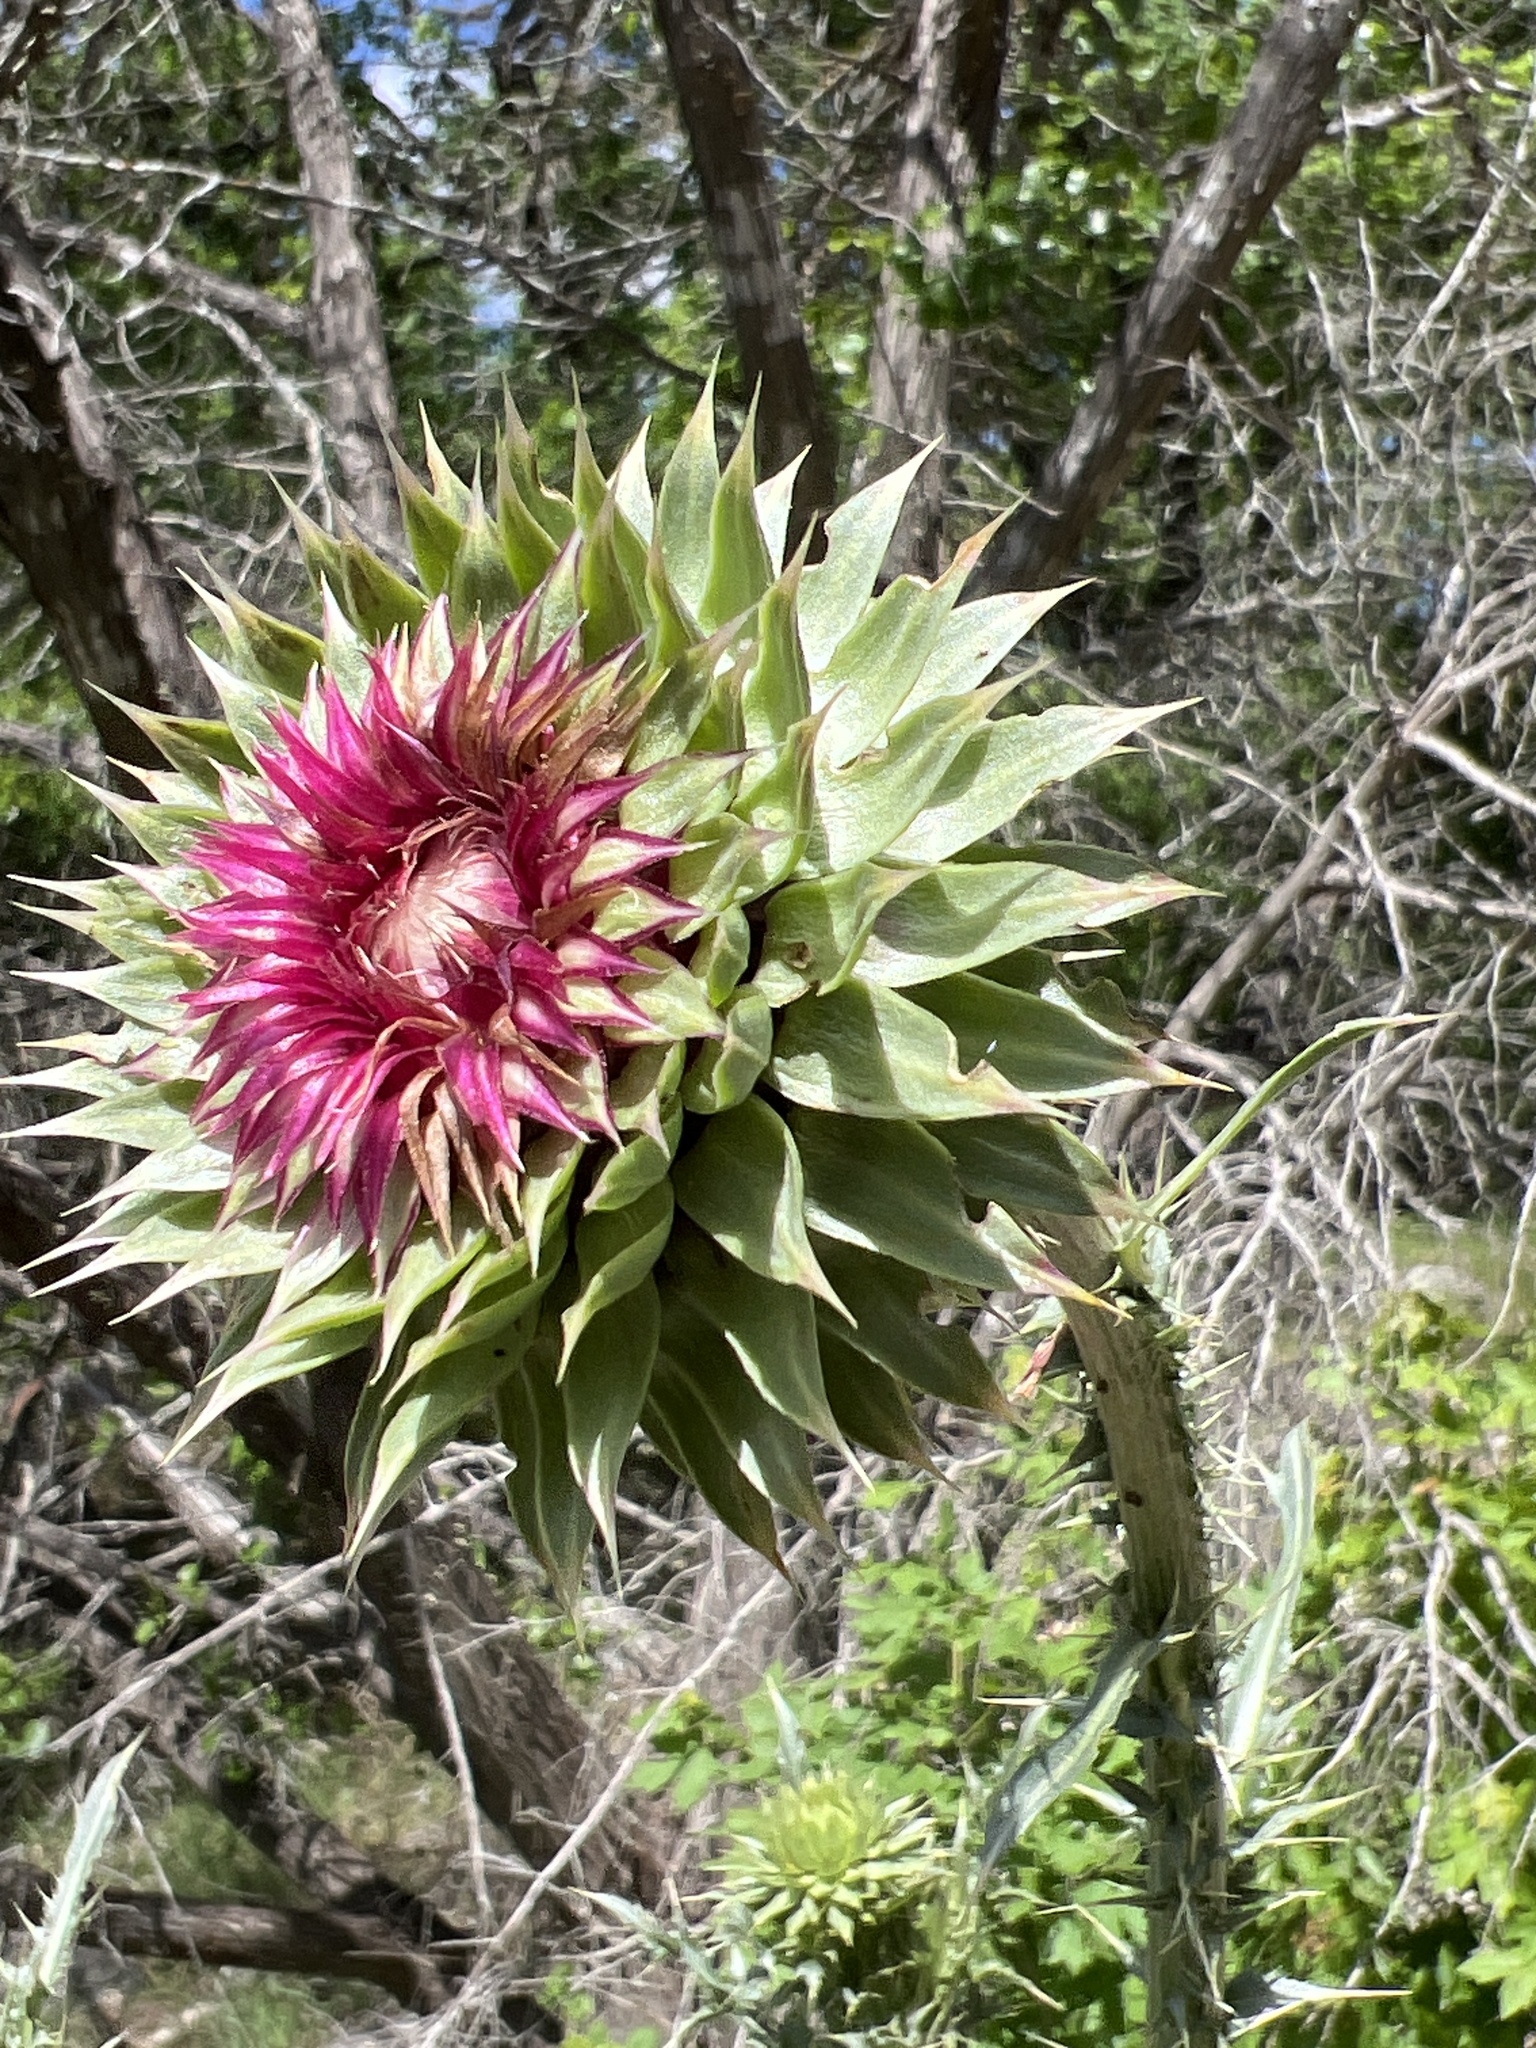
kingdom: Plantae
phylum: Tracheophyta
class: Magnoliopsida
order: Asterales
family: Asteraceae
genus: Carduus
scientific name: Carduus nutans
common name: Musk thistle
